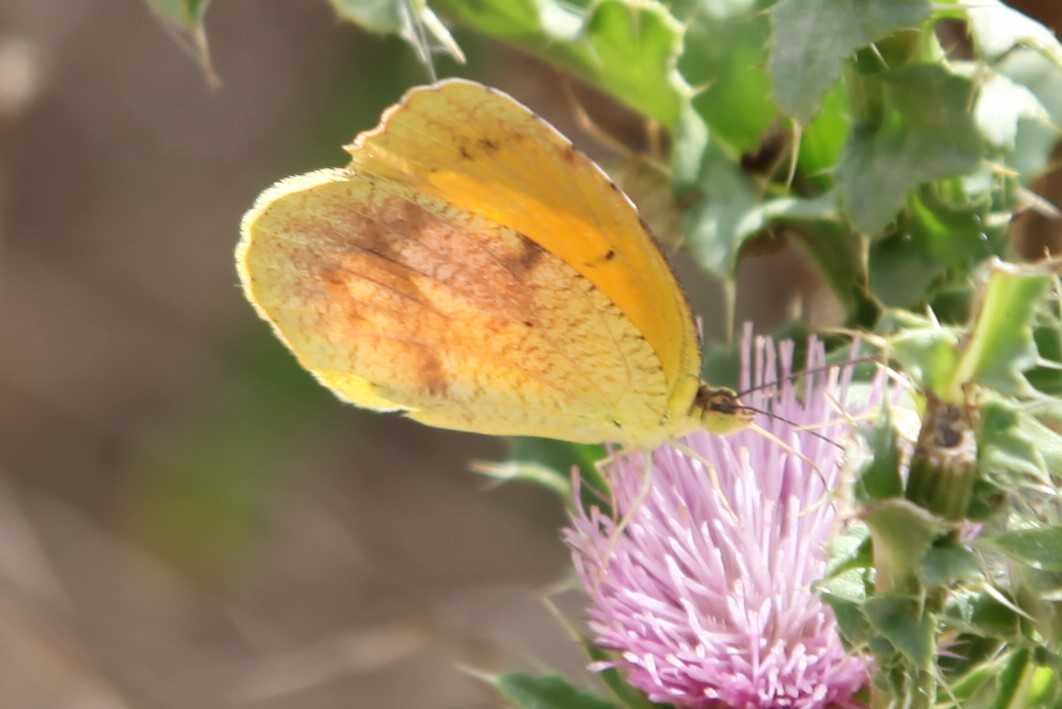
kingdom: Animalia
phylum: Arthropoda
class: Insecta
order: Lepidoptera
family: Pieridae
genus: Abaeis
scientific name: Abaeis nicippe
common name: Sleepy orange
